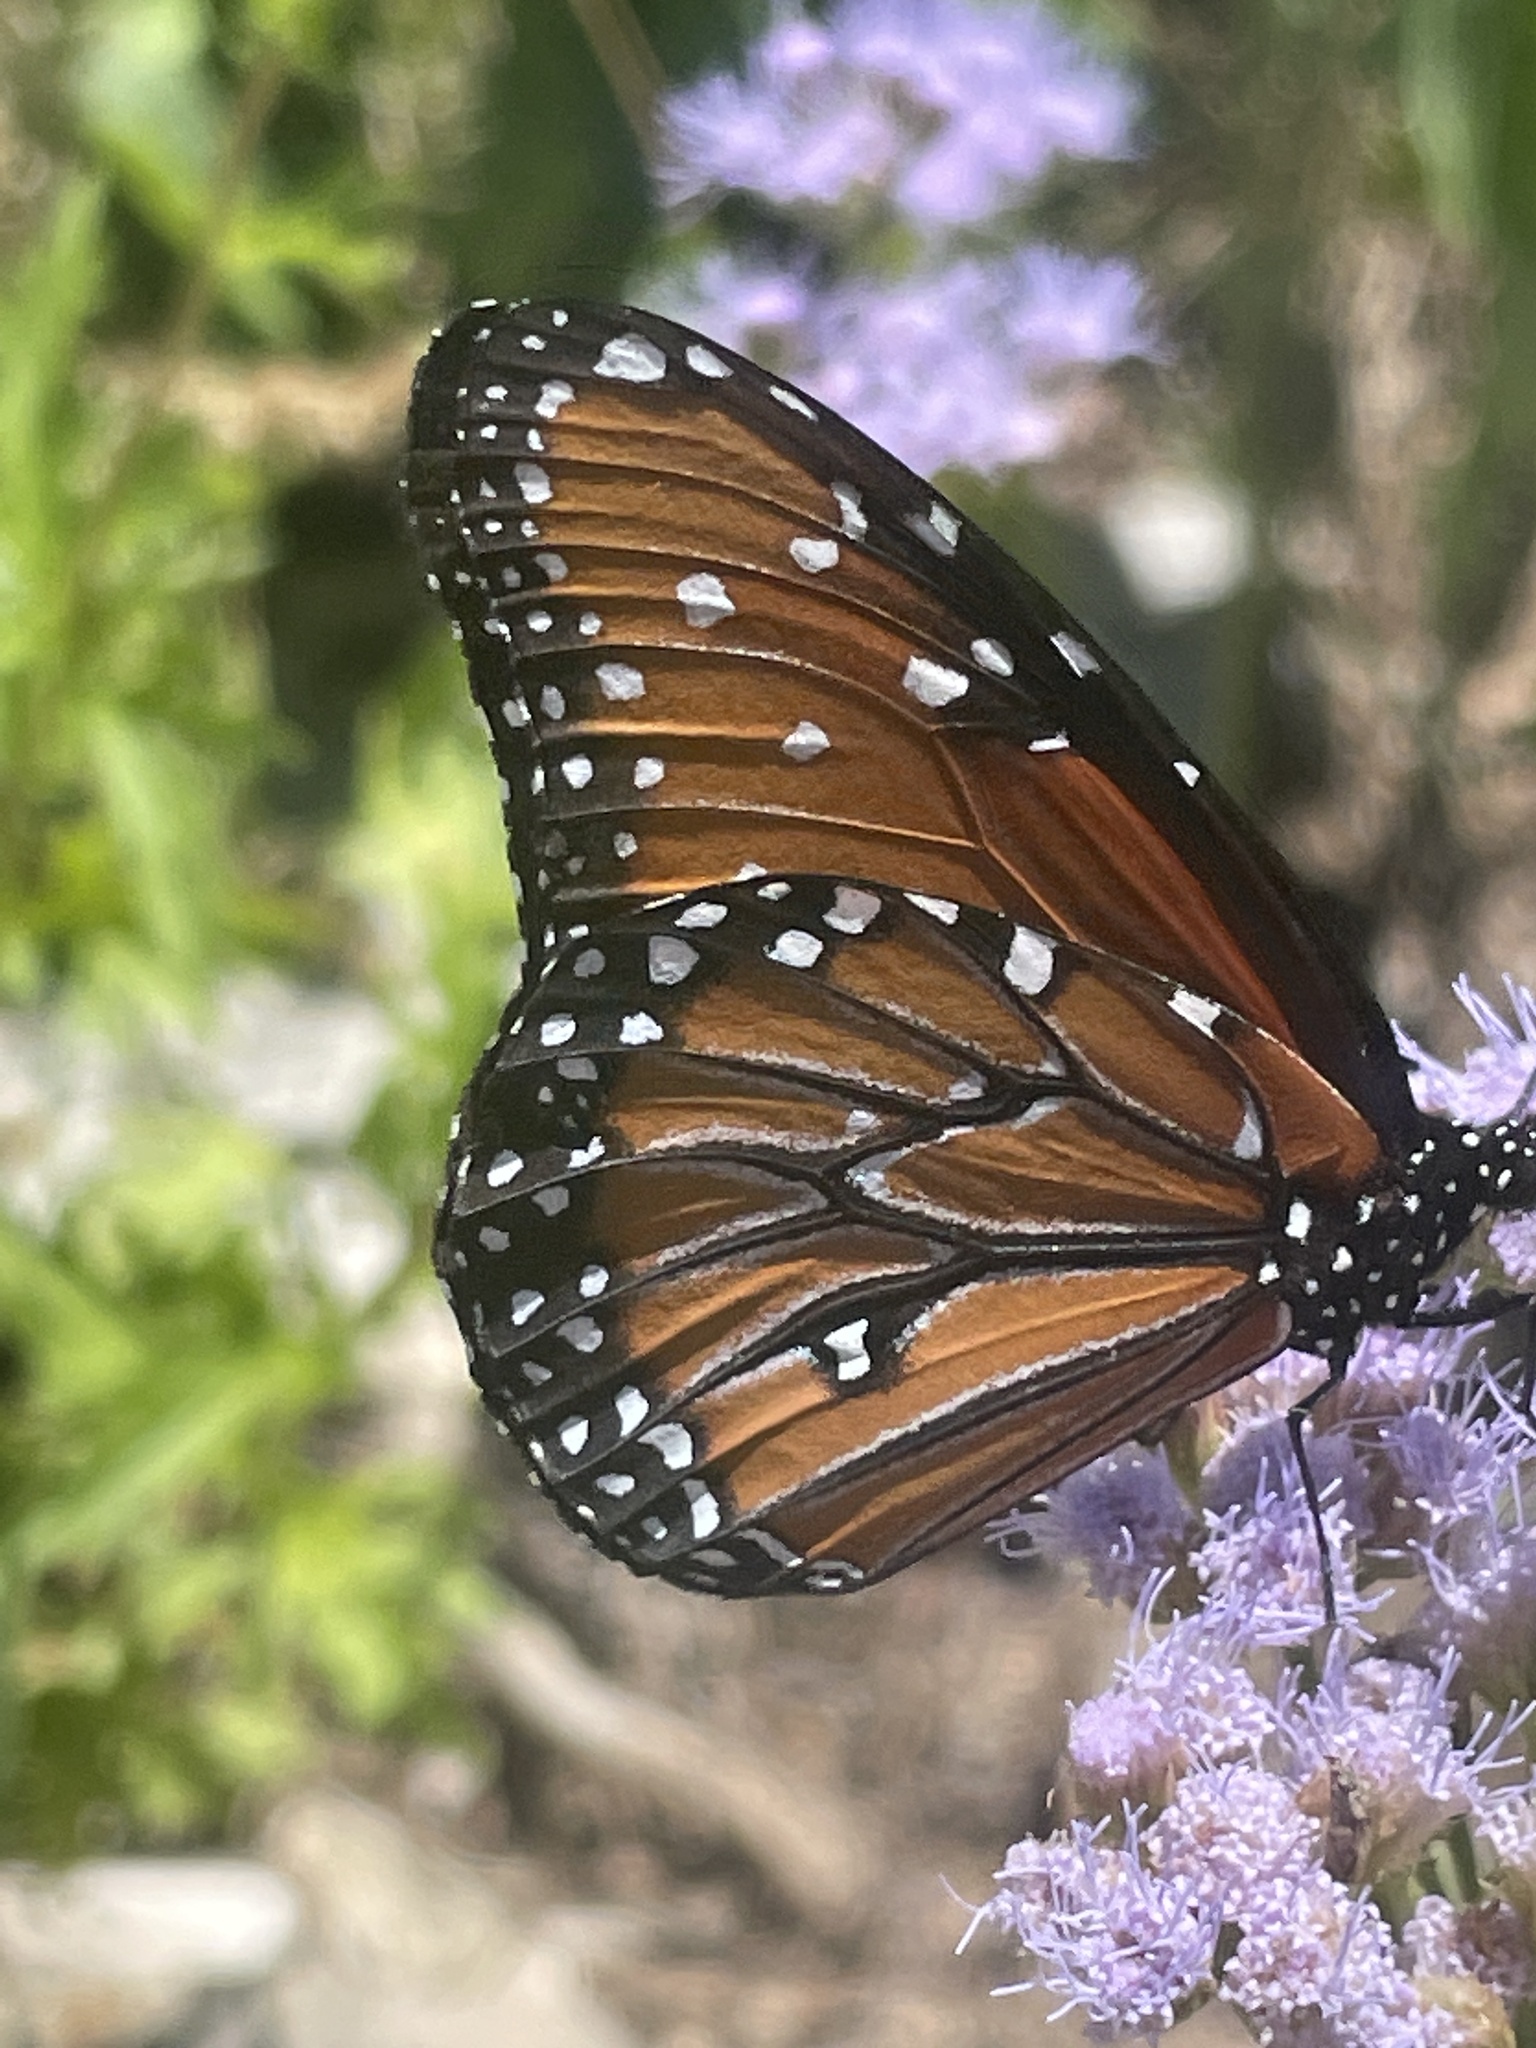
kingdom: Animalia
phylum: Arthropoda
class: Insecta
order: Lepidoptera
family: Nymphalidae
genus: Danaus
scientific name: Danaus gilippus
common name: Queen
